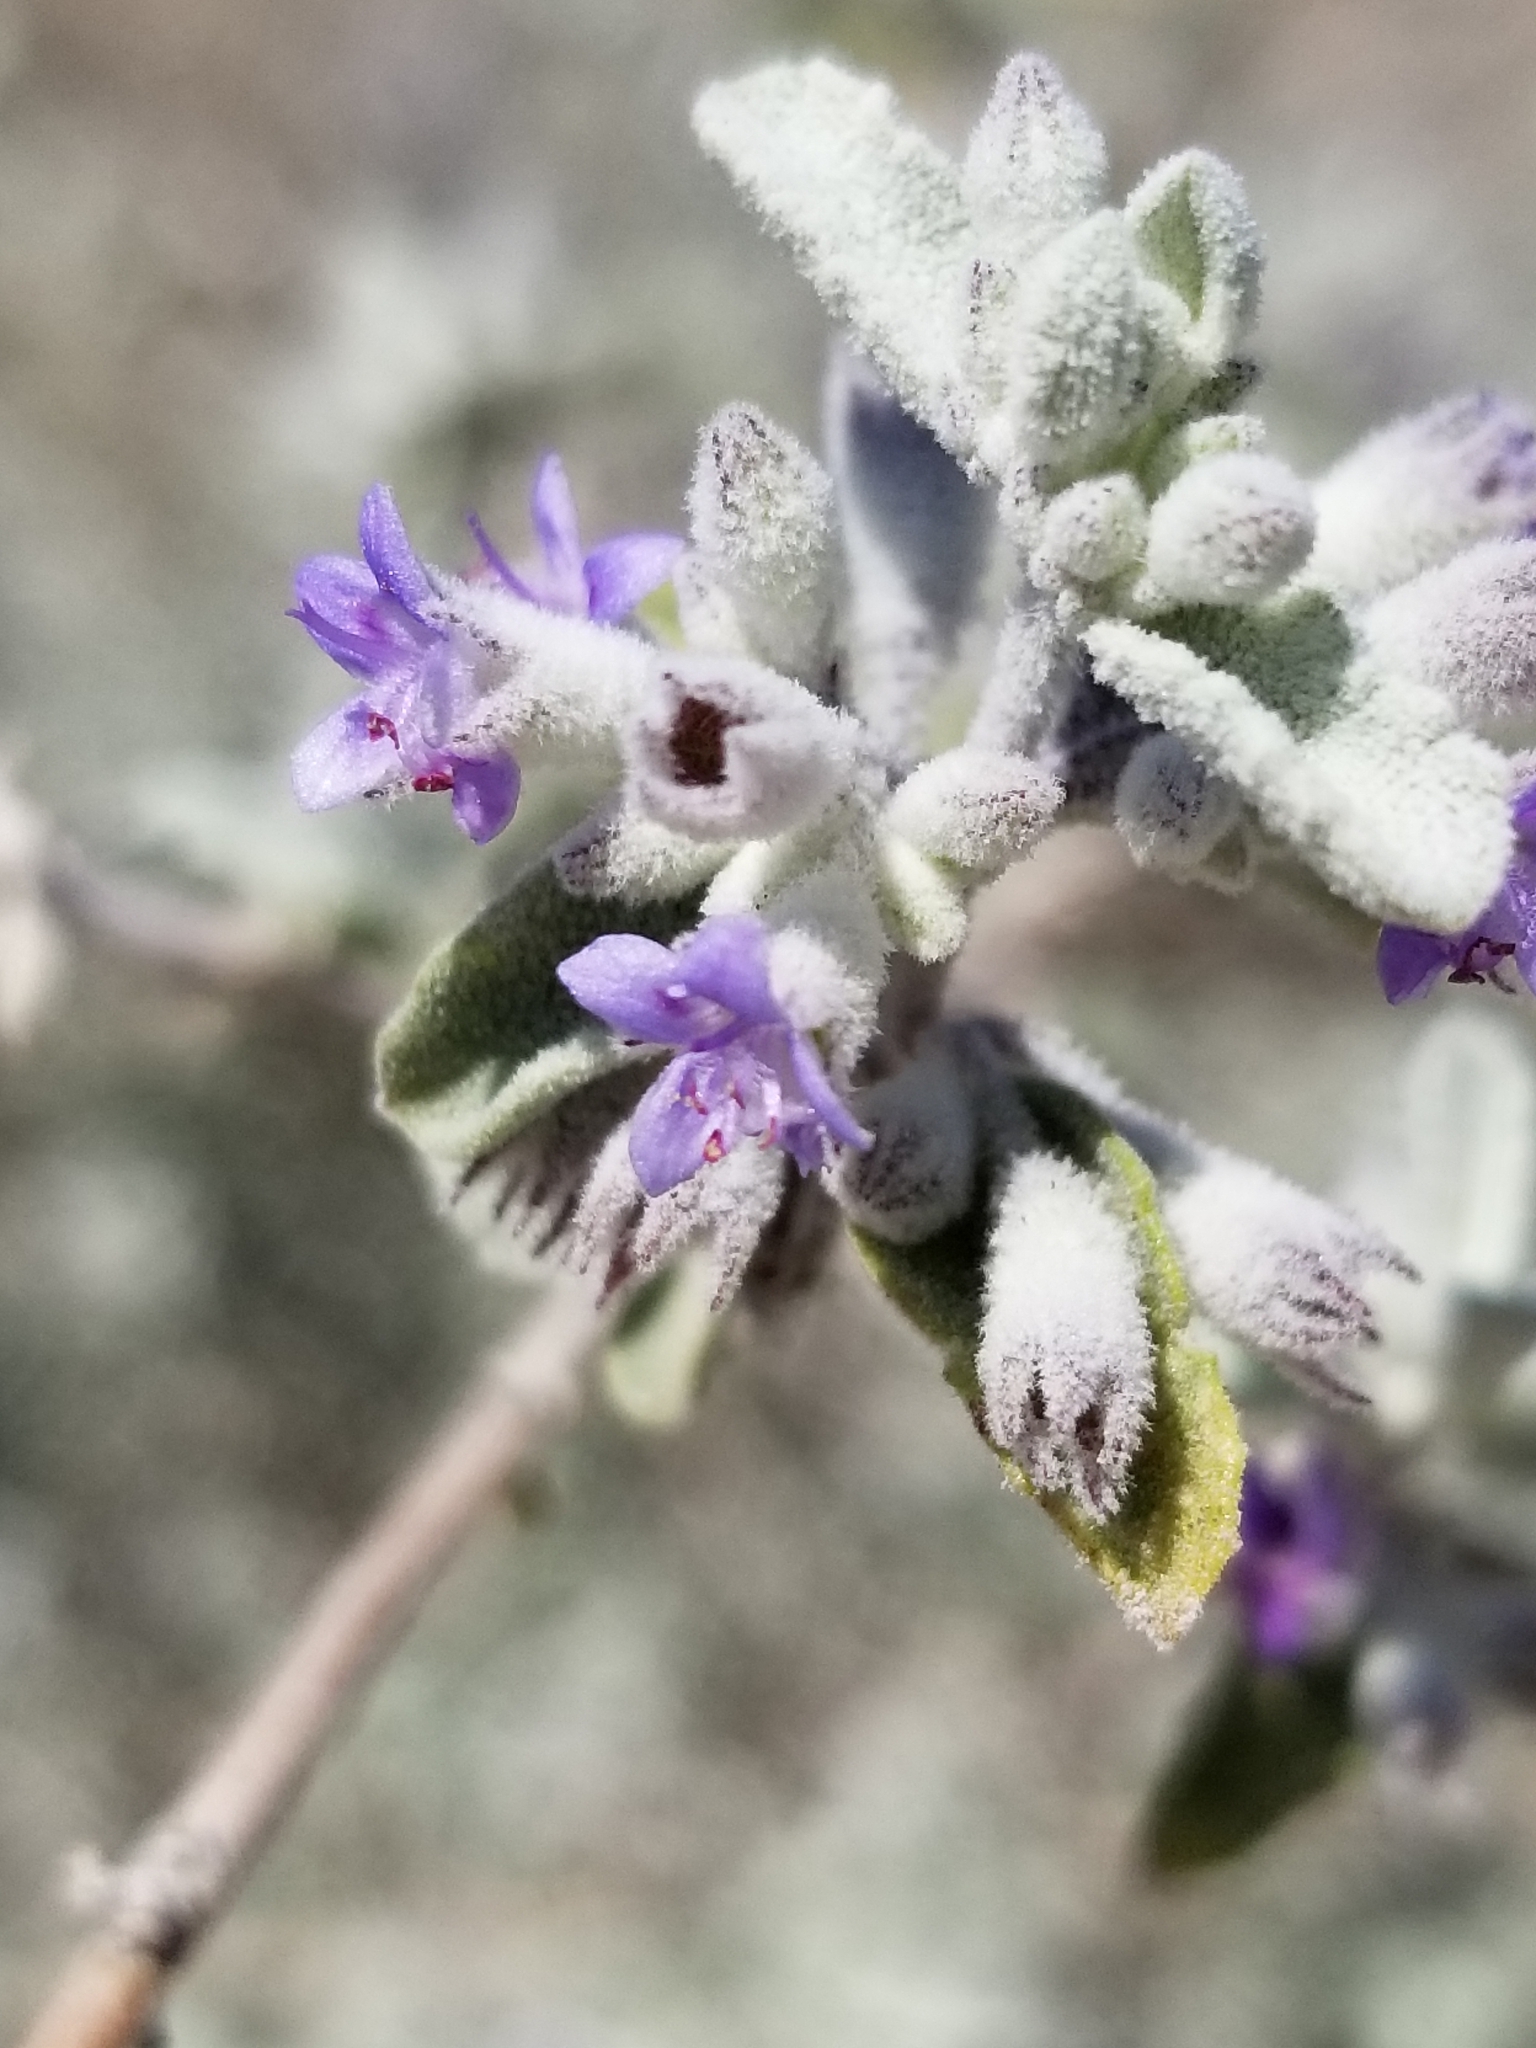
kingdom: Plantae
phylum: Tracheophyta
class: Magnoliopsida
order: Lamiales
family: Lamiaceae
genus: Condea
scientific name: Condea emoryi
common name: Chia
